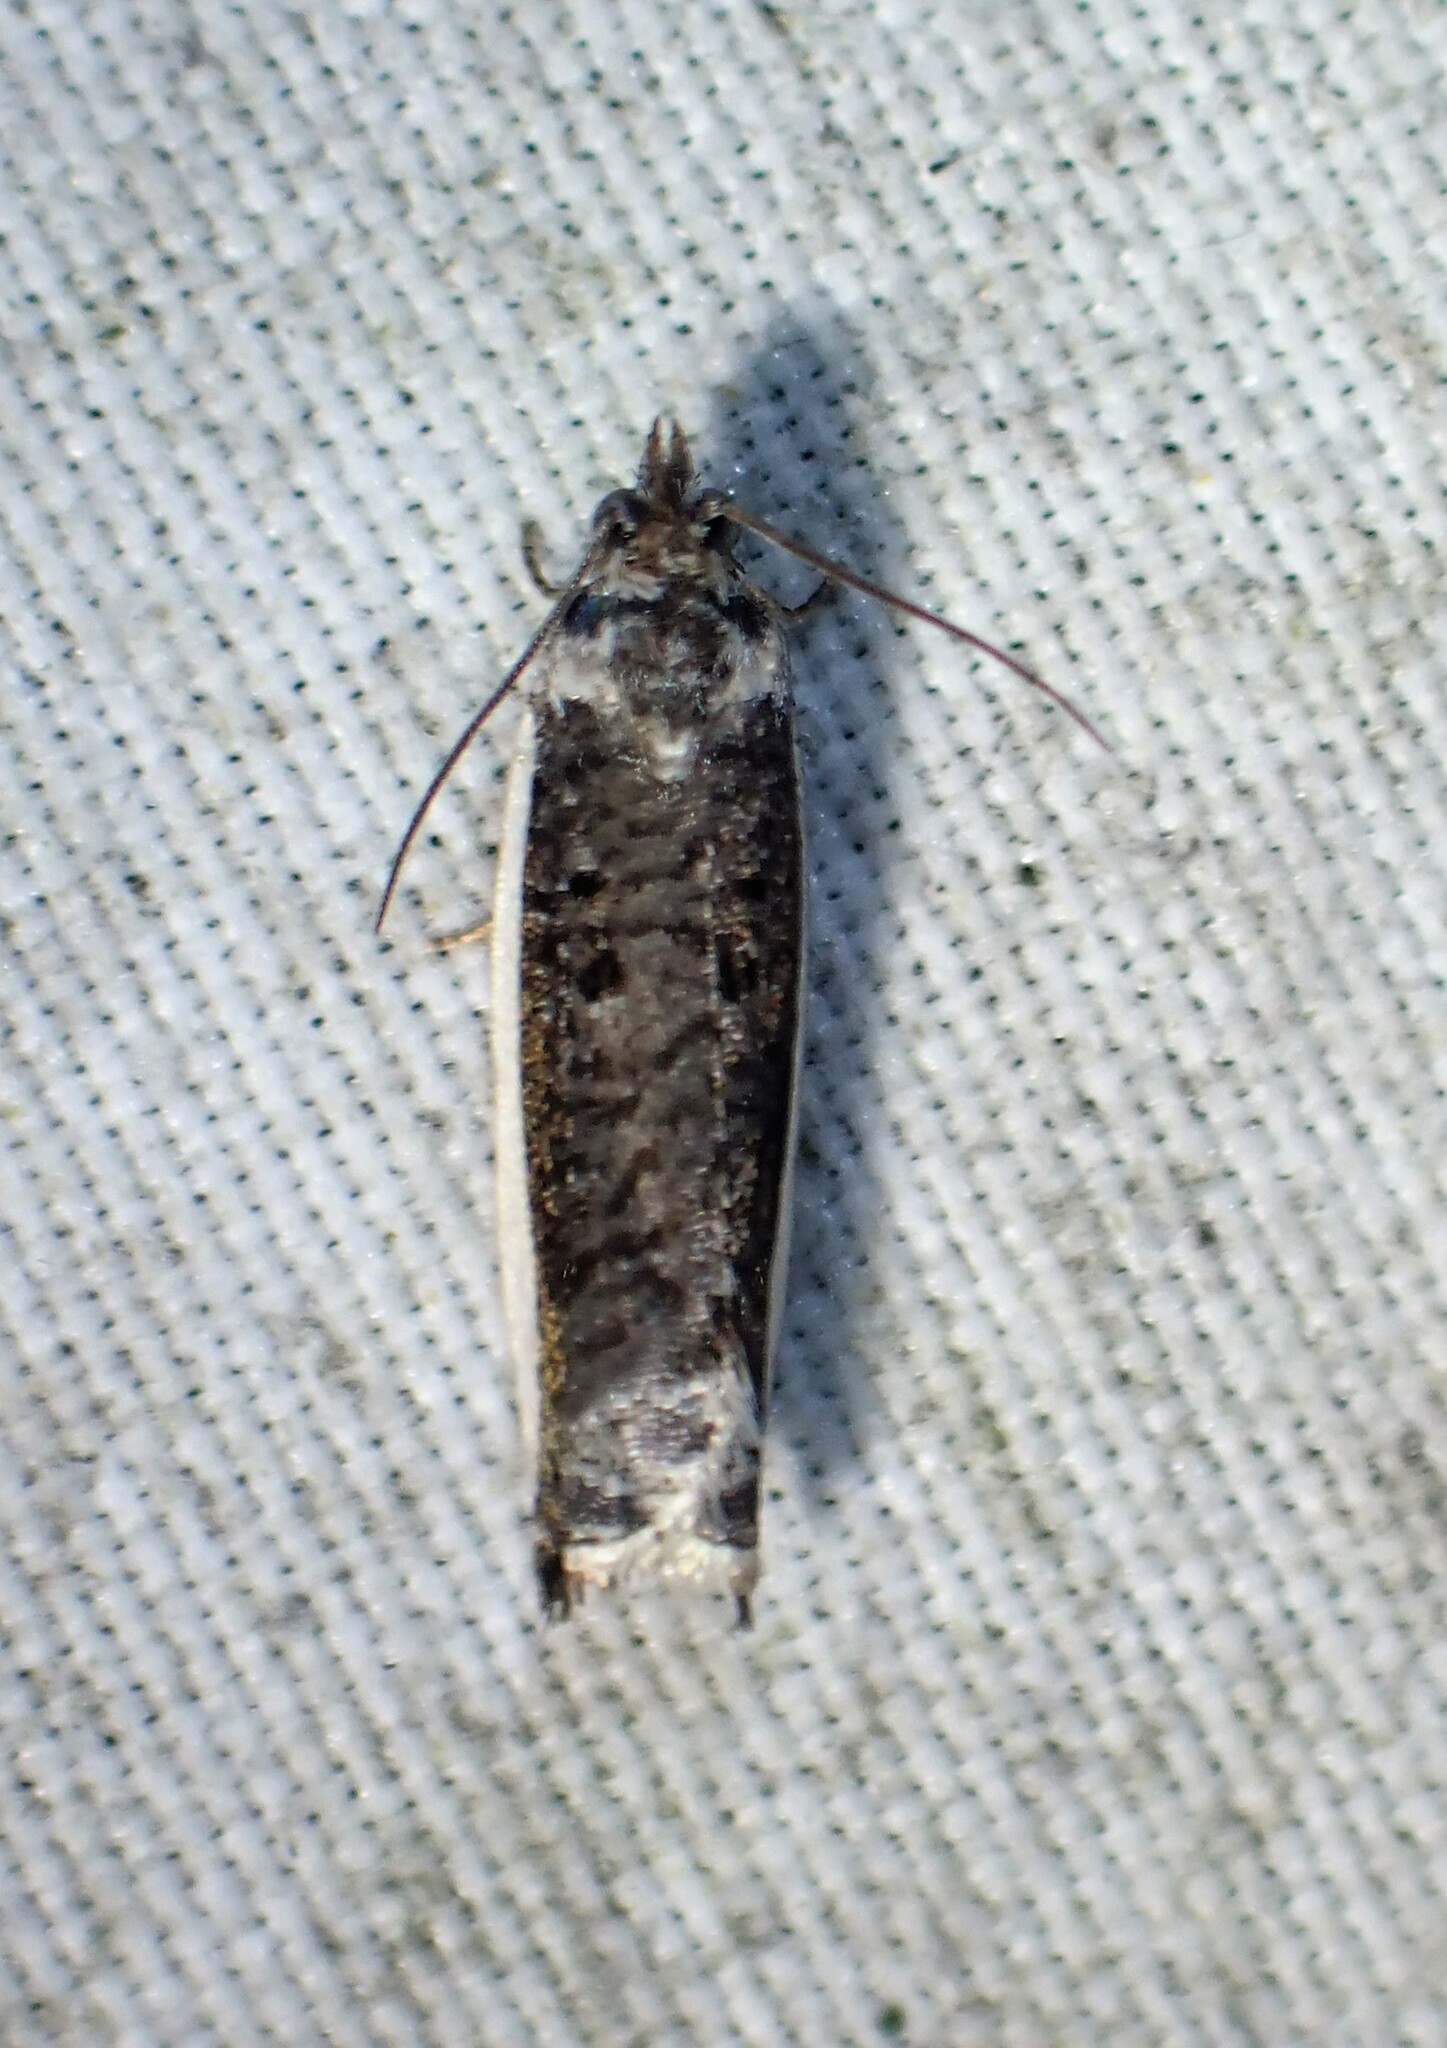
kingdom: Animalia
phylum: Arthropoda
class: Insecta
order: Lepidoptera
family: Tortricidae
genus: Ancylis
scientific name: Ancylis albacostana
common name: White-edged ancylis moth
